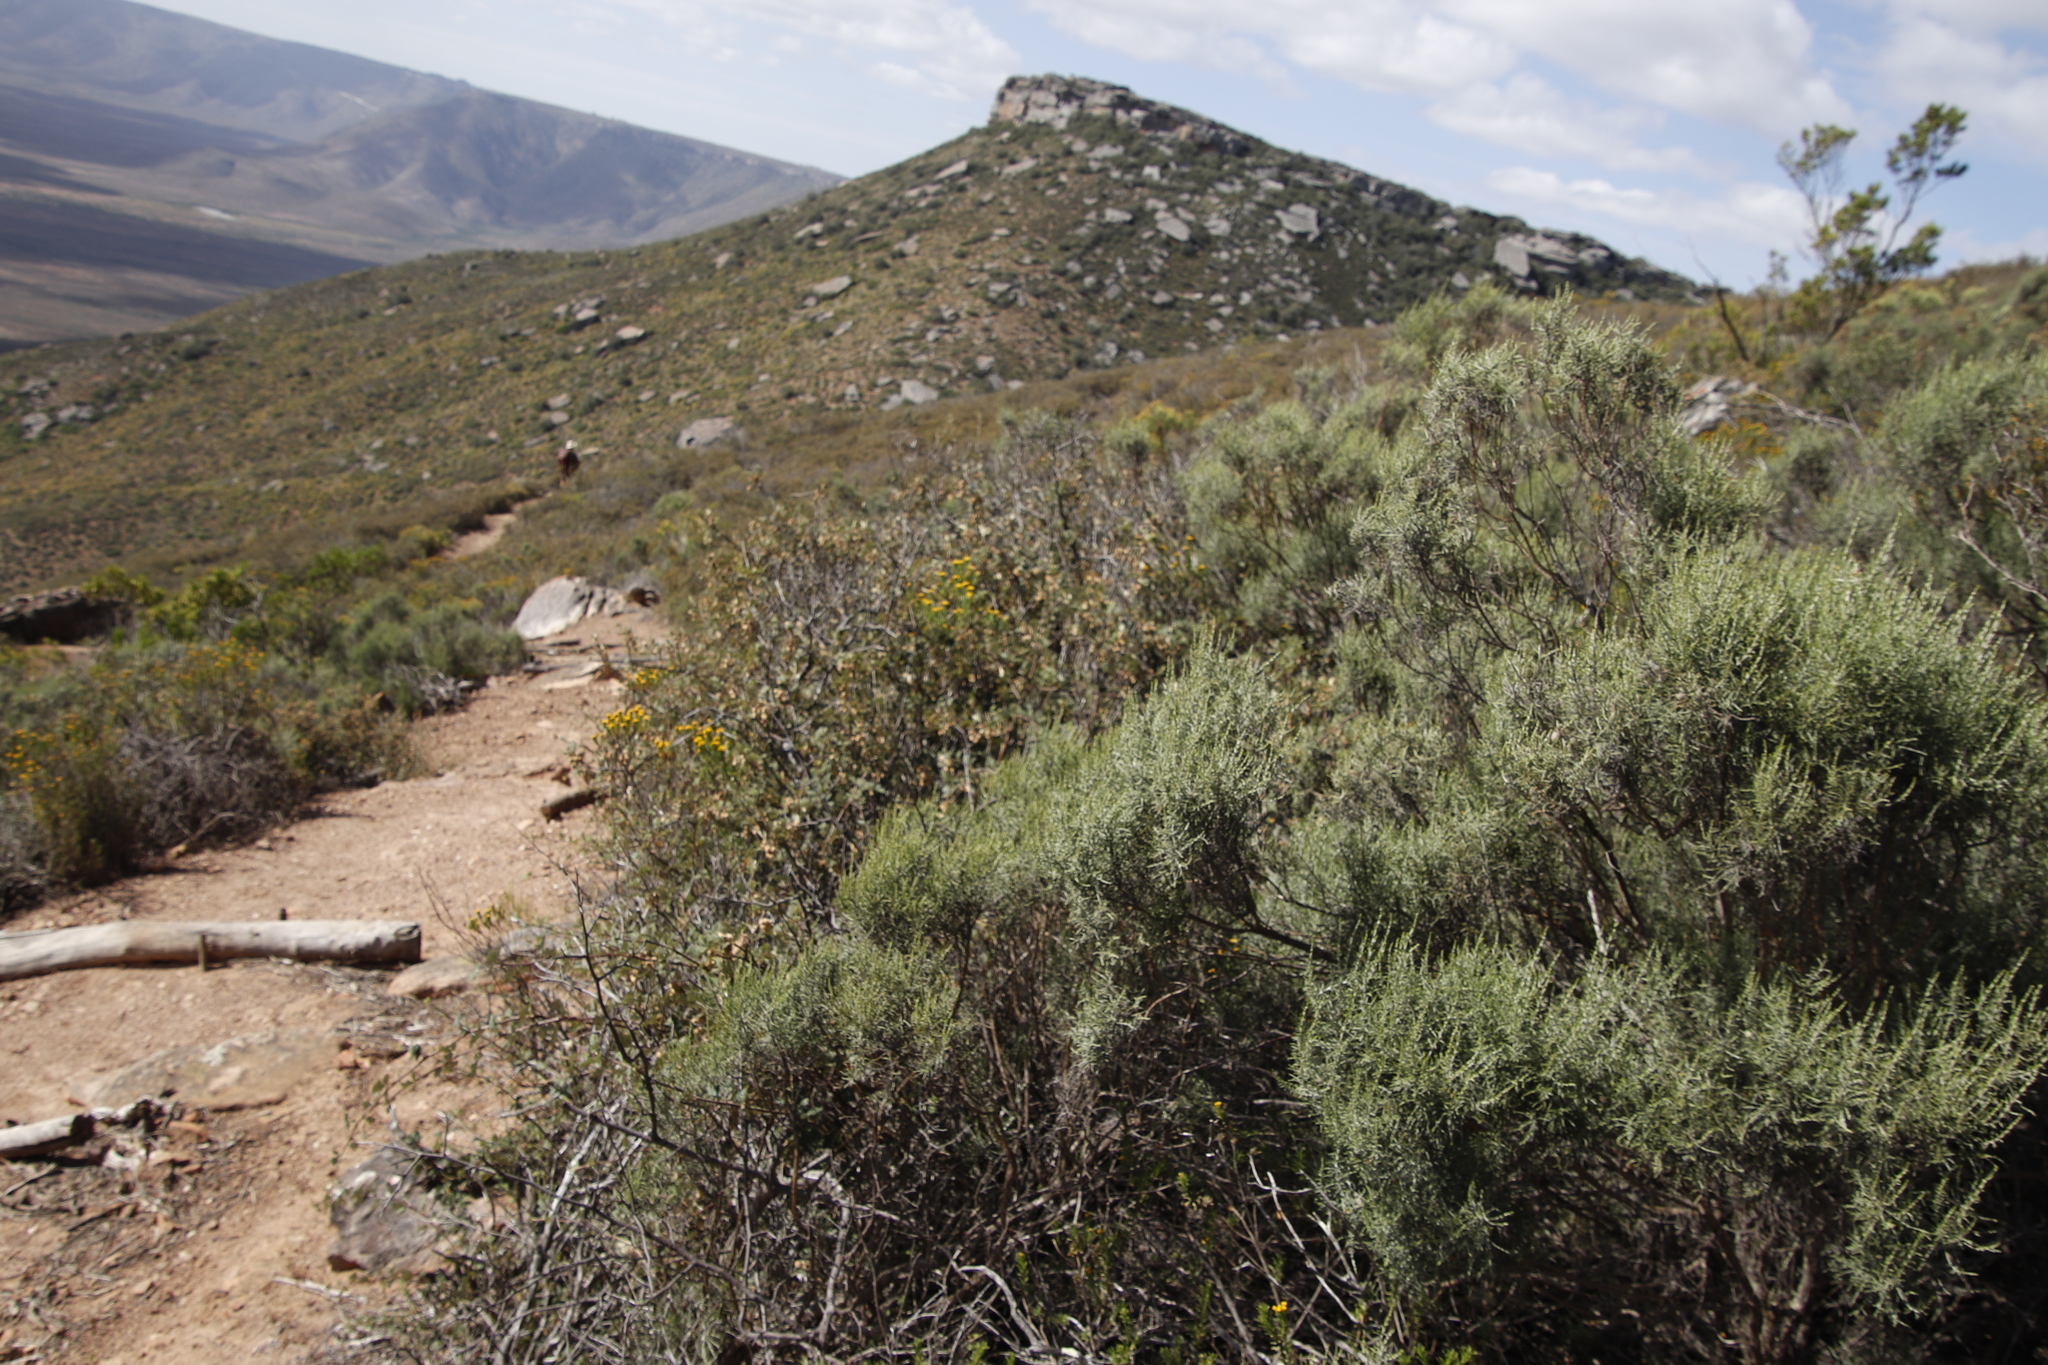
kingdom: Plantae
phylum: Tracheophyta
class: Magnoliopsida
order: Asterales
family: Asteraceae
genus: Dicerothamnus
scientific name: Dicerothamnus rhinocerotis
